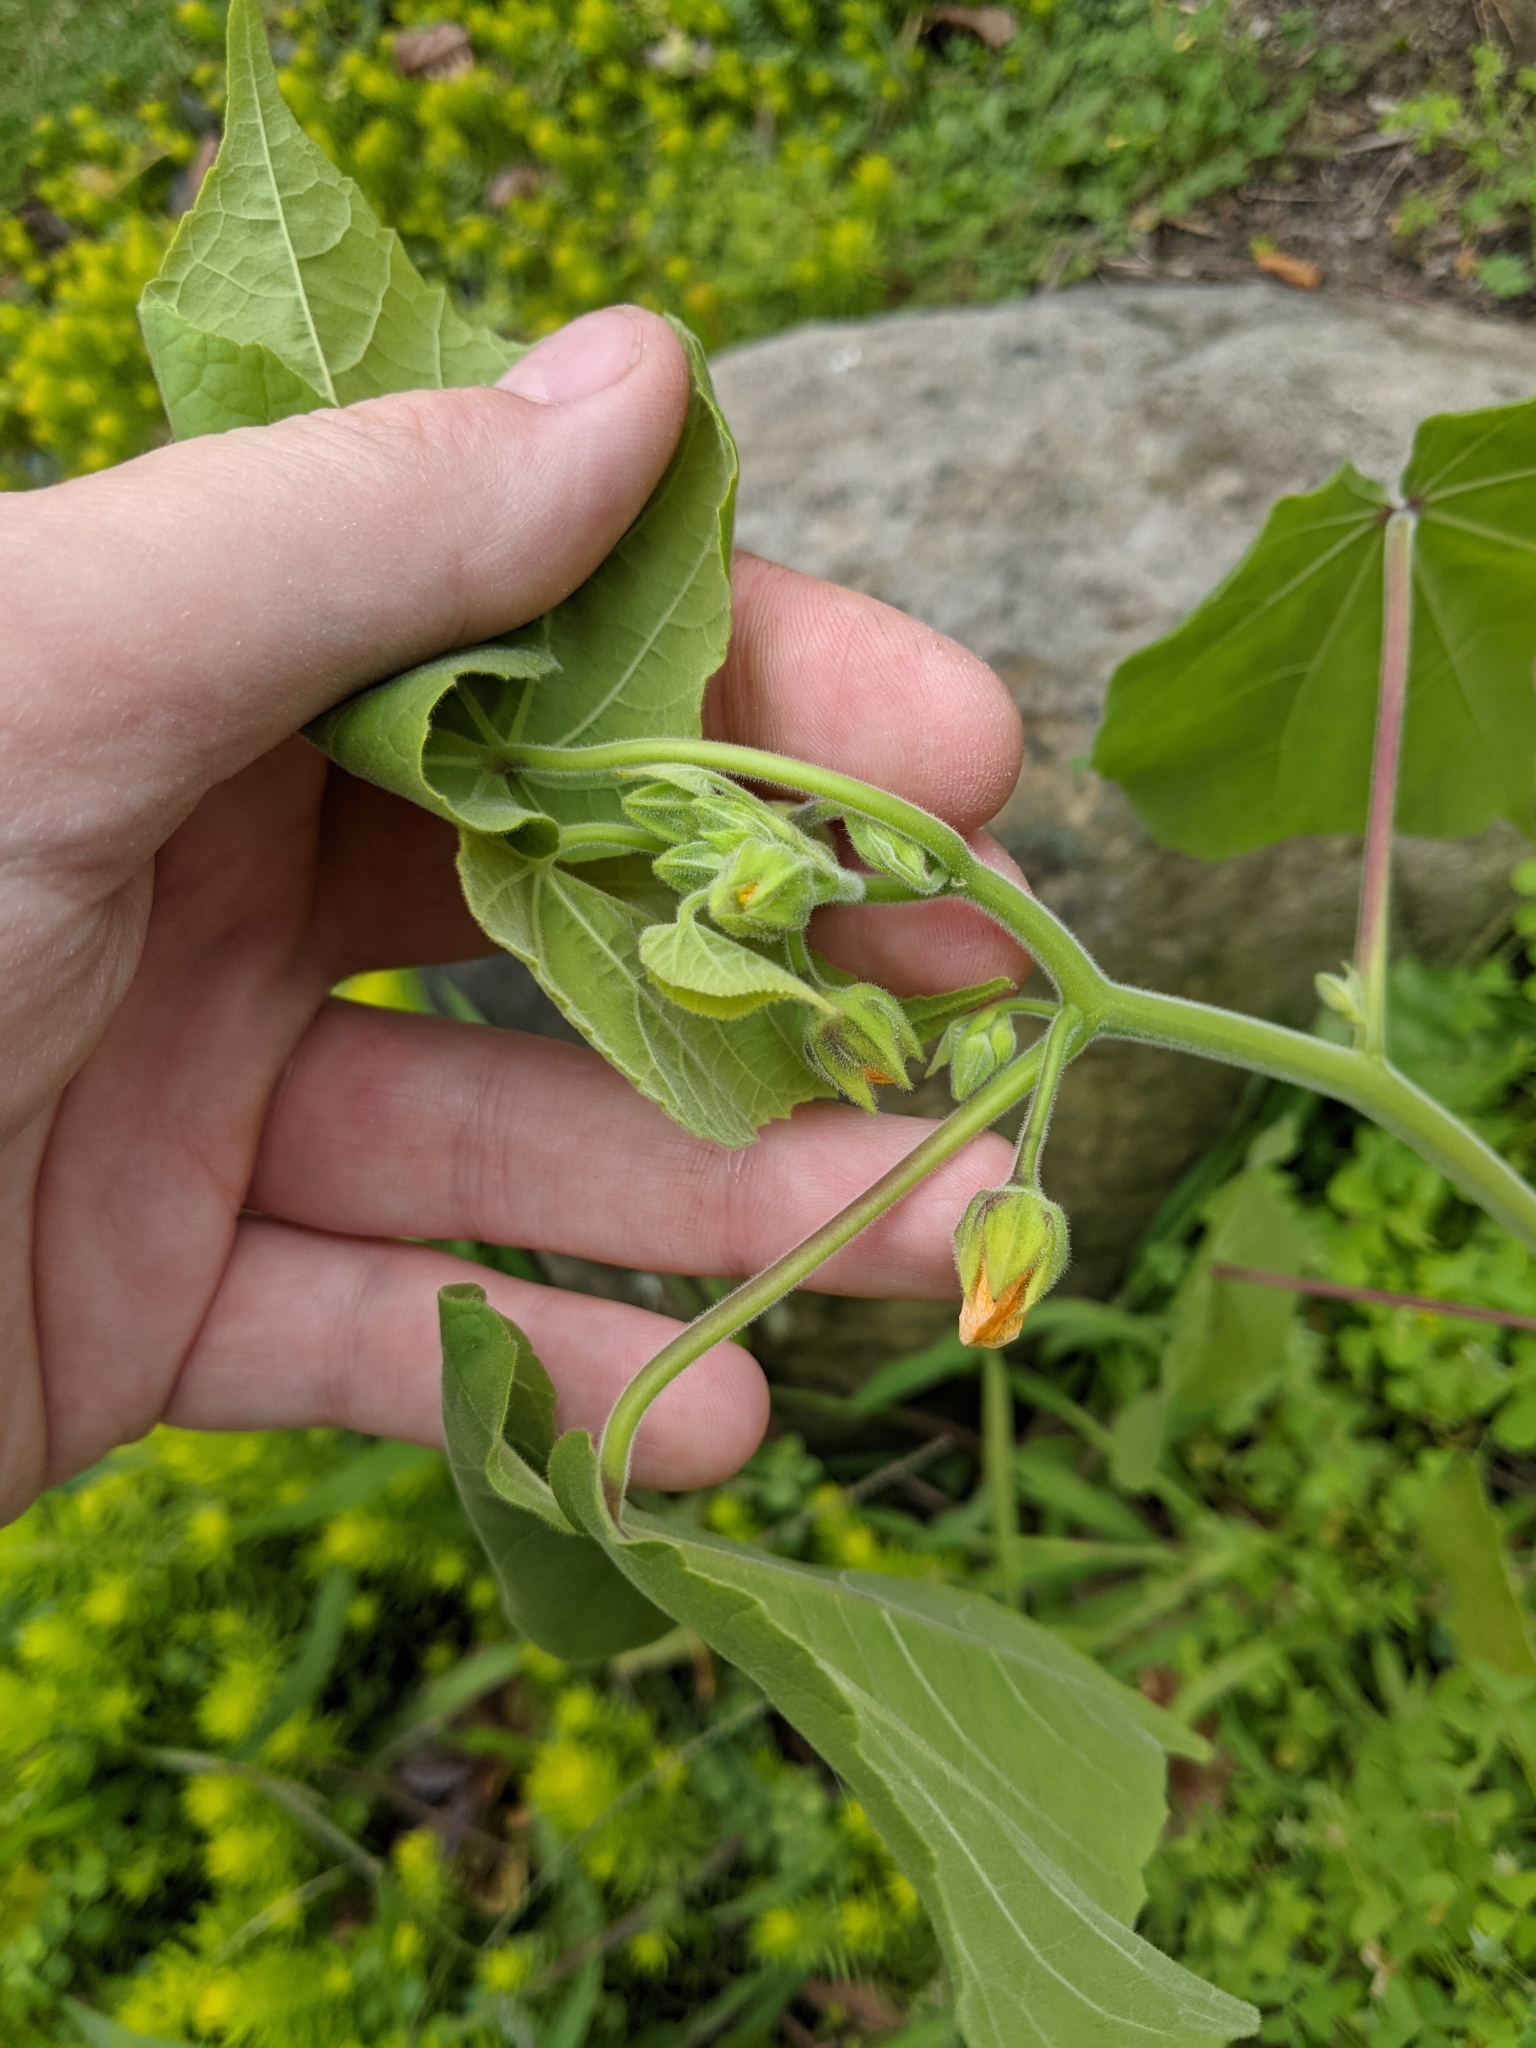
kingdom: Plantae
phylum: Tracheophyta
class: Magnoliopsida
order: Malvales
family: Malvaceae
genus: Abutilon
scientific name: Abutilon theophrasti
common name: Velvetleaf
